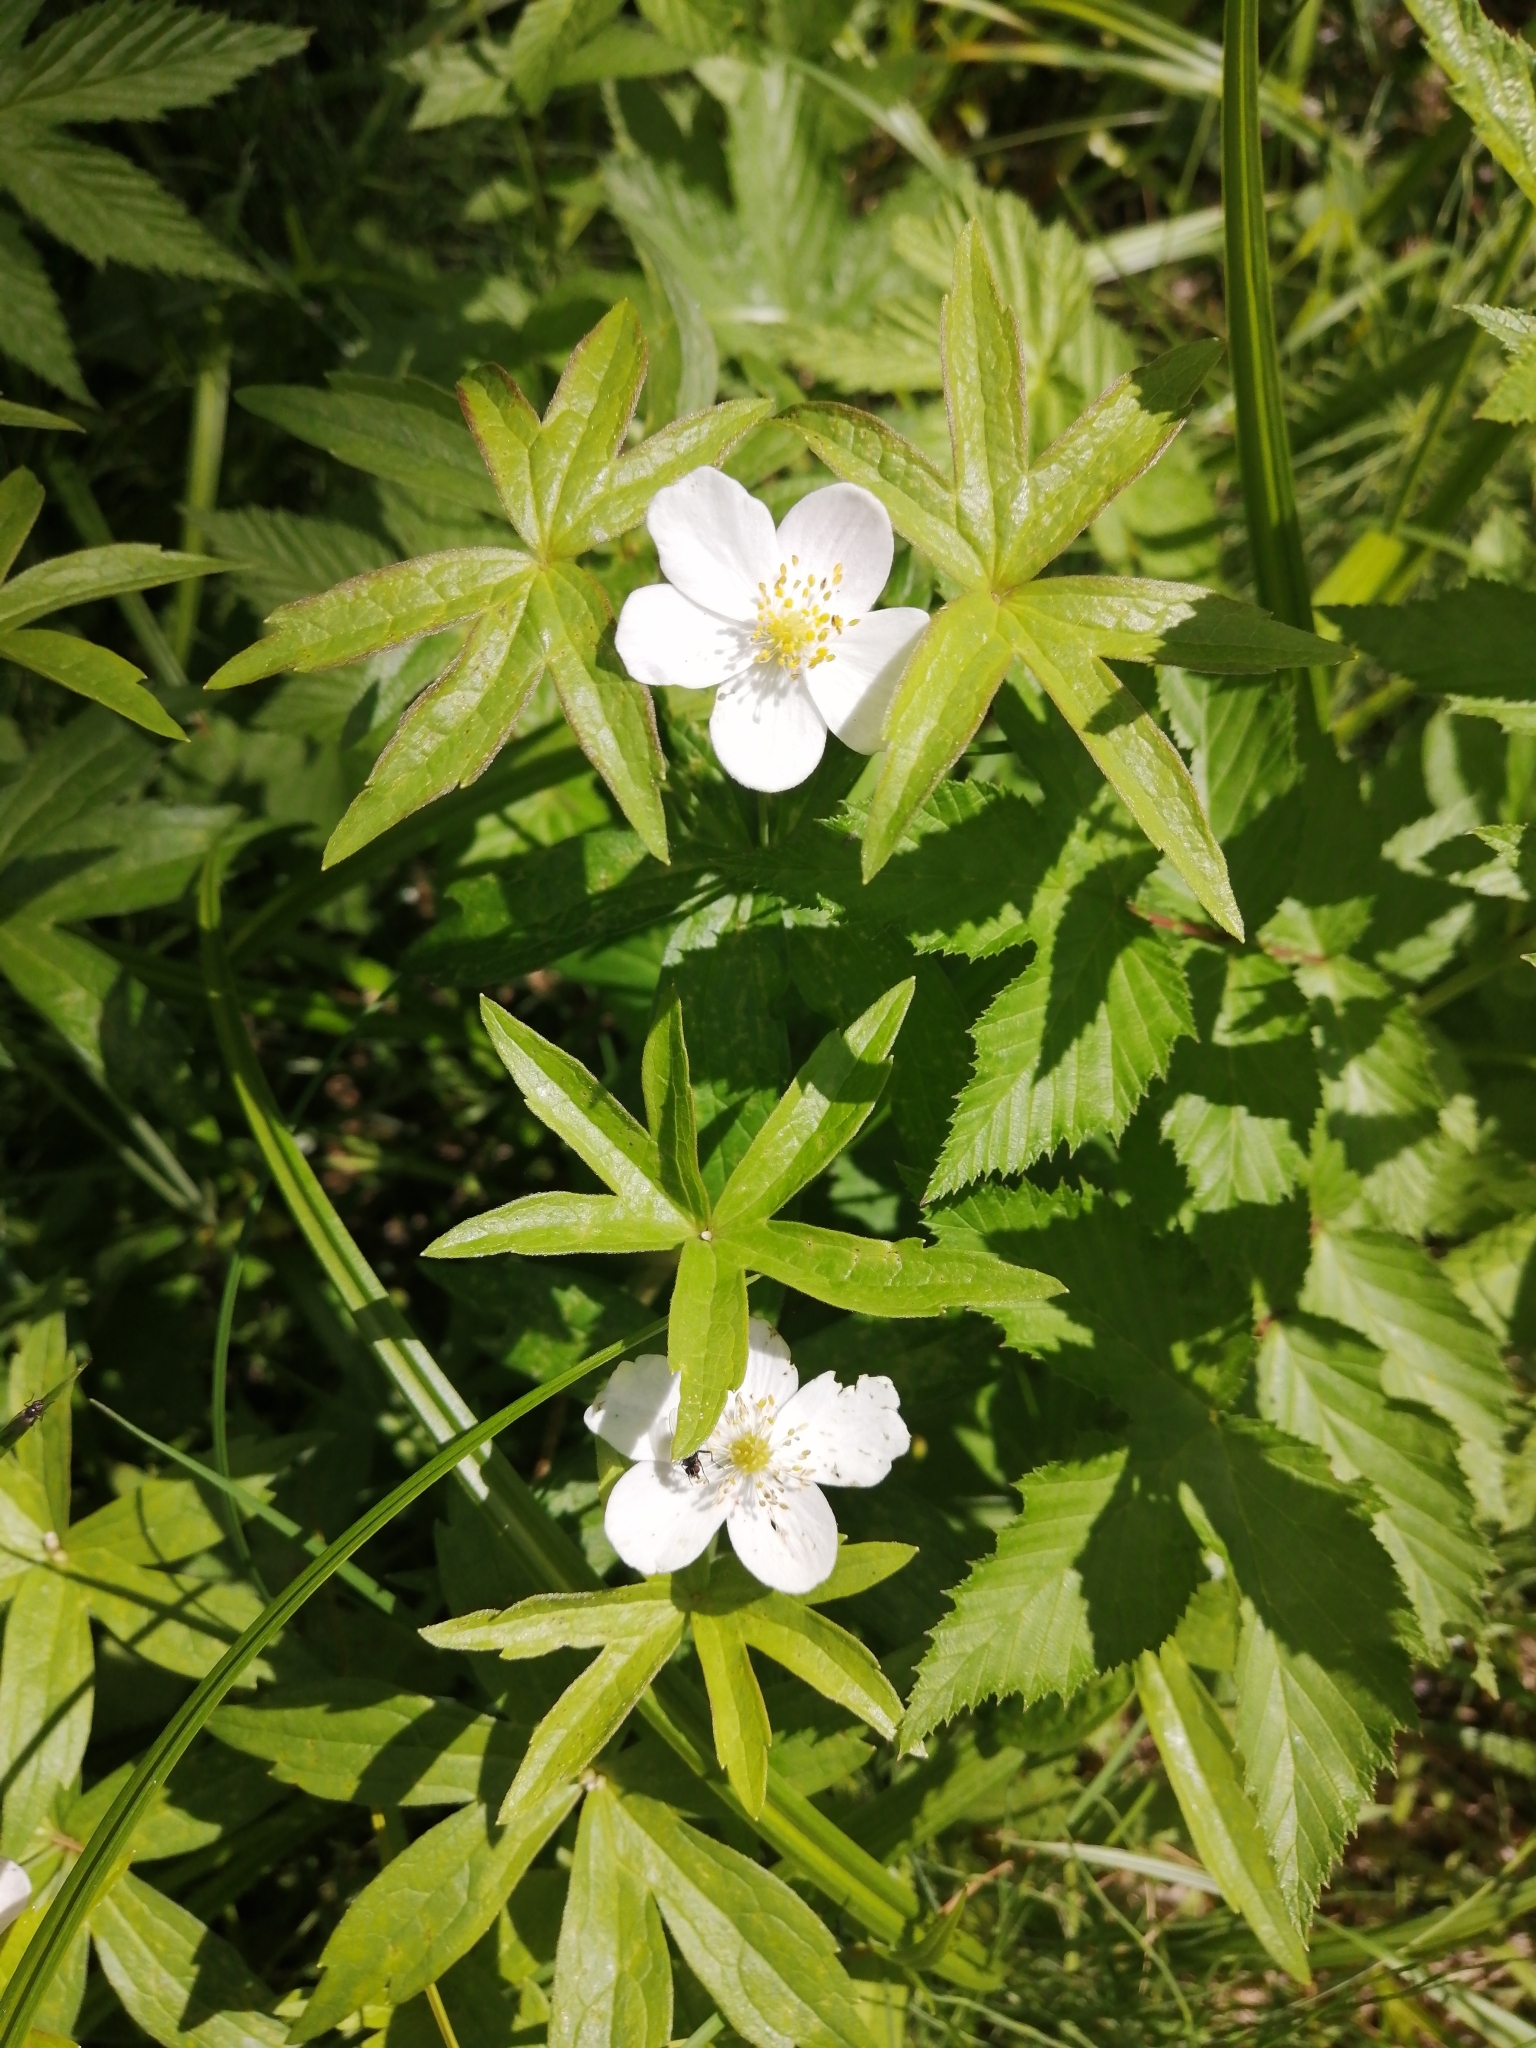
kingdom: Plantae
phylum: Tracheophyta
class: Magnoliopsida
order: Ranunculales
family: Ranunculaceae
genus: Anemonastrum
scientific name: Anemonastrum dichotomum
